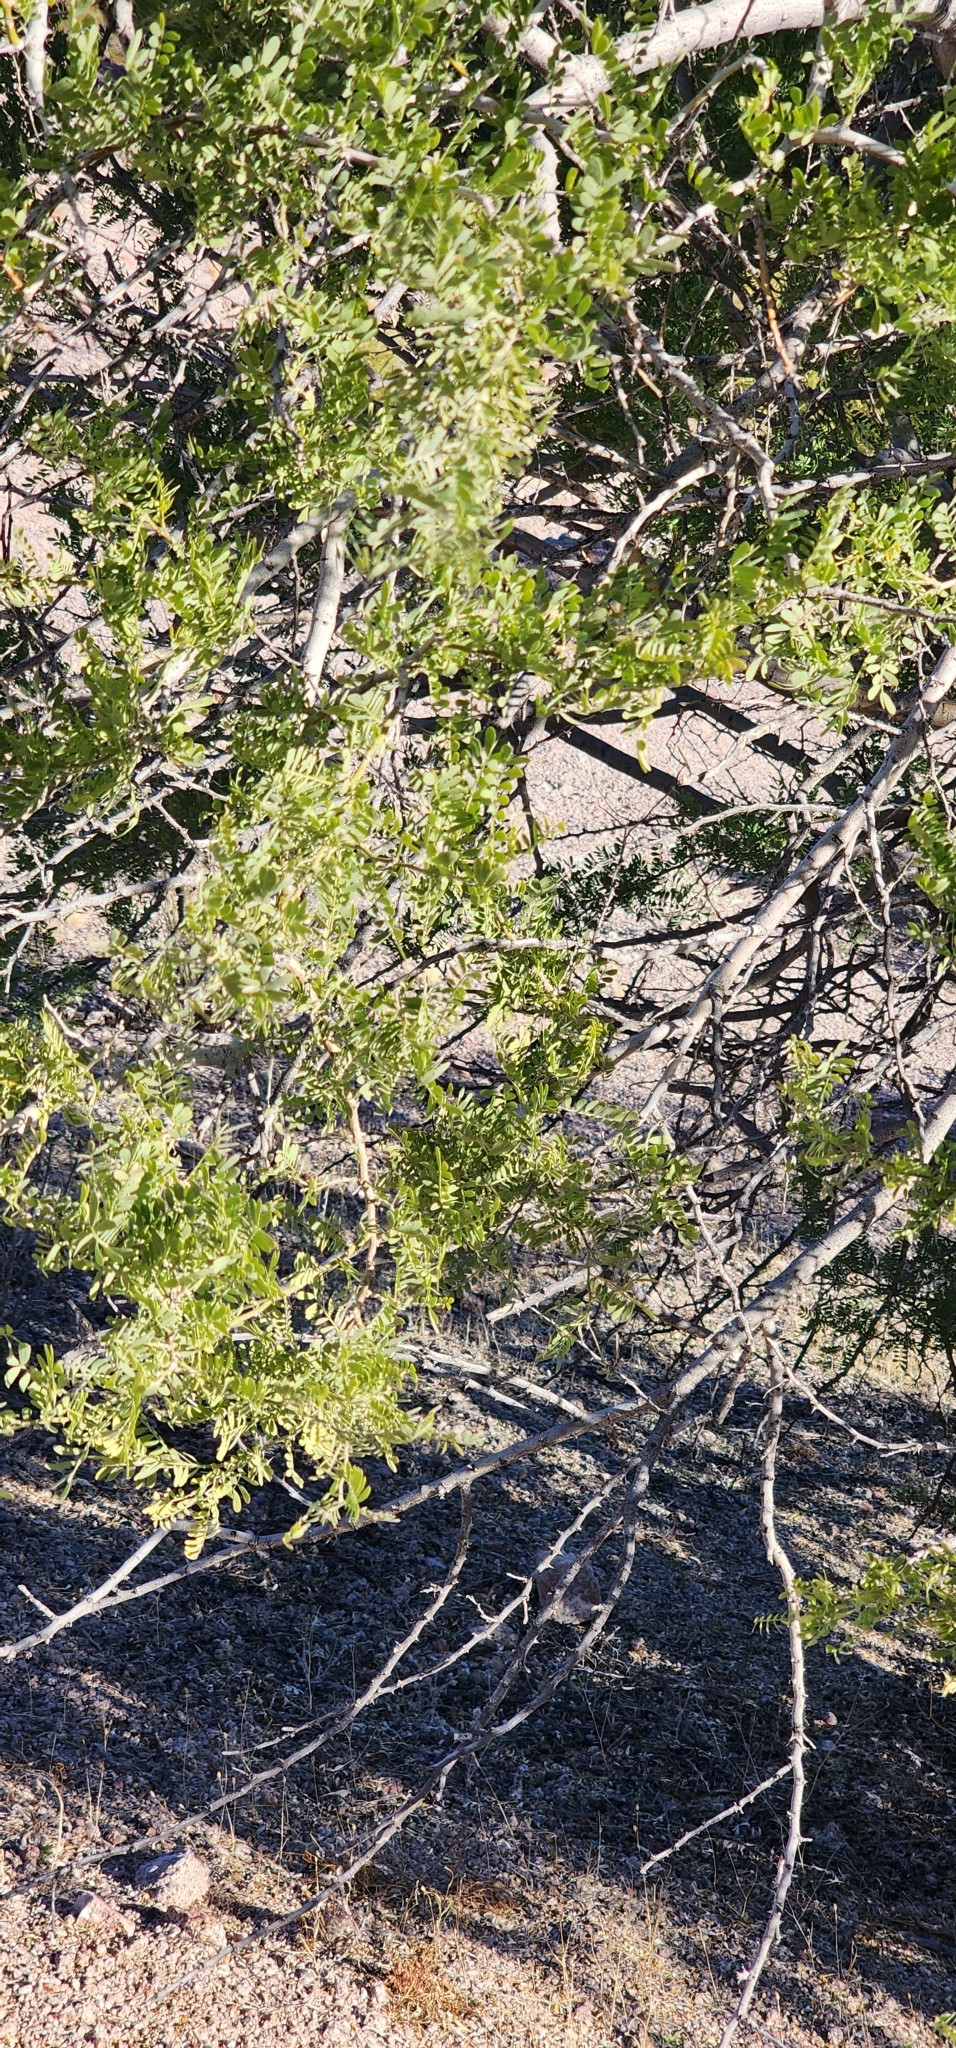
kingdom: Plantae
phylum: Tracheophyta
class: Magnoliopsida
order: Fabales
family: Fabaceae
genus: Olneya
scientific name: Olneya tesota
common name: Desert ironwood
